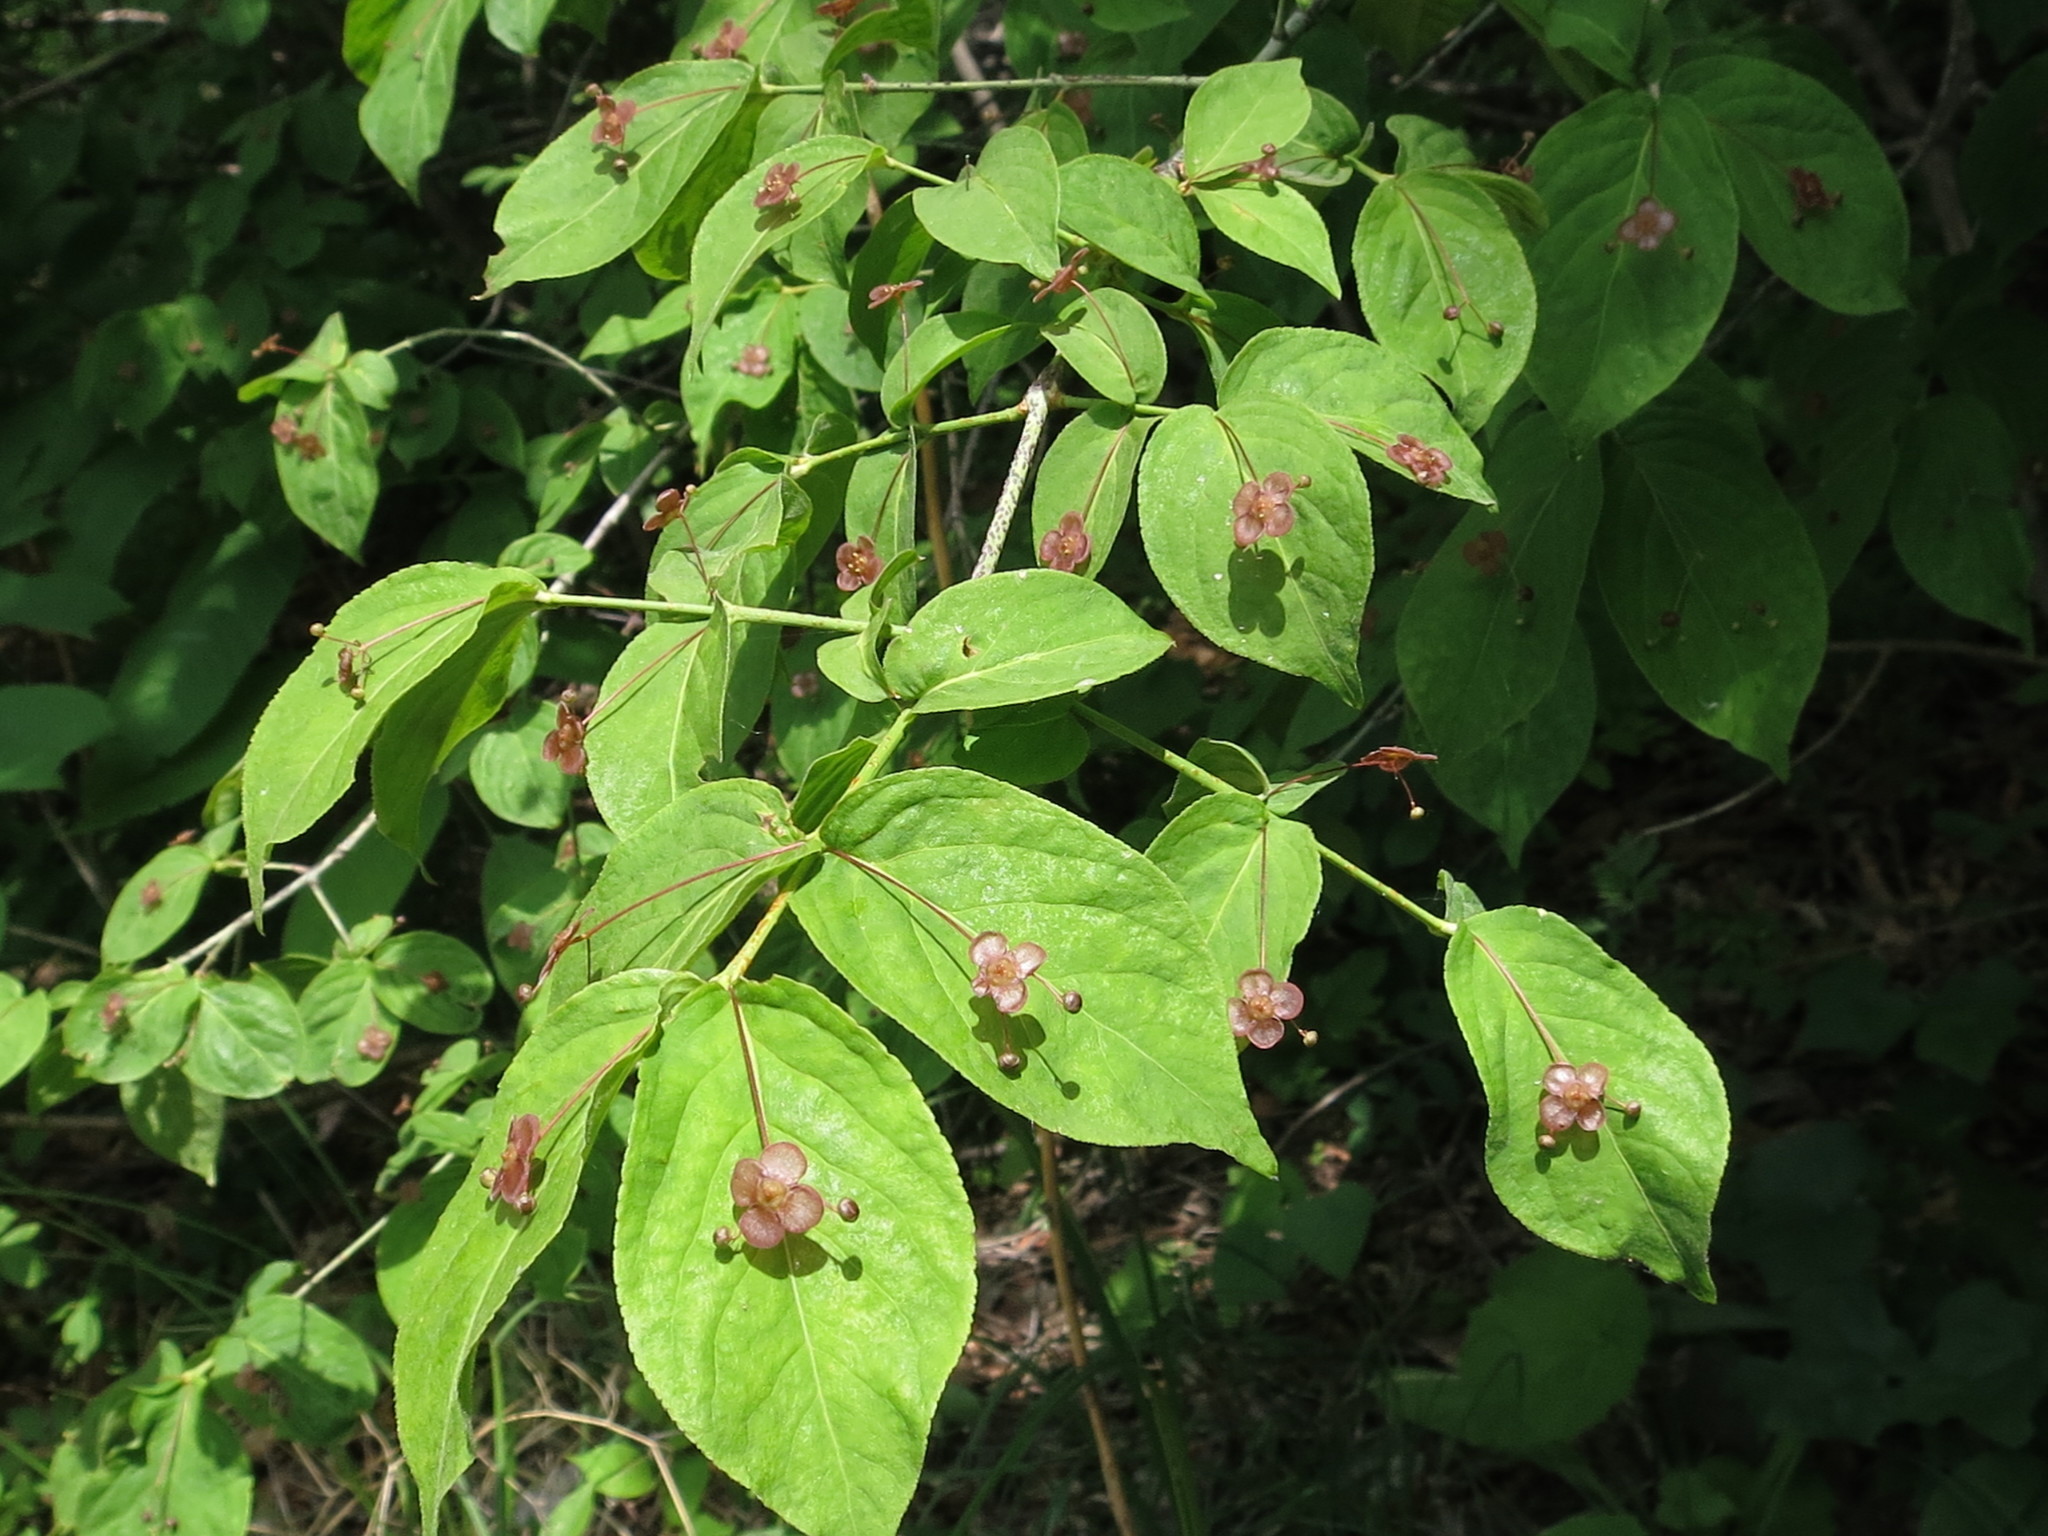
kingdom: Plantae
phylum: Tracheophyta
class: Magnoliopsida
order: Celastrales
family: Celastraceae
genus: Euonymus
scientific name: Euonymus verrucosus
